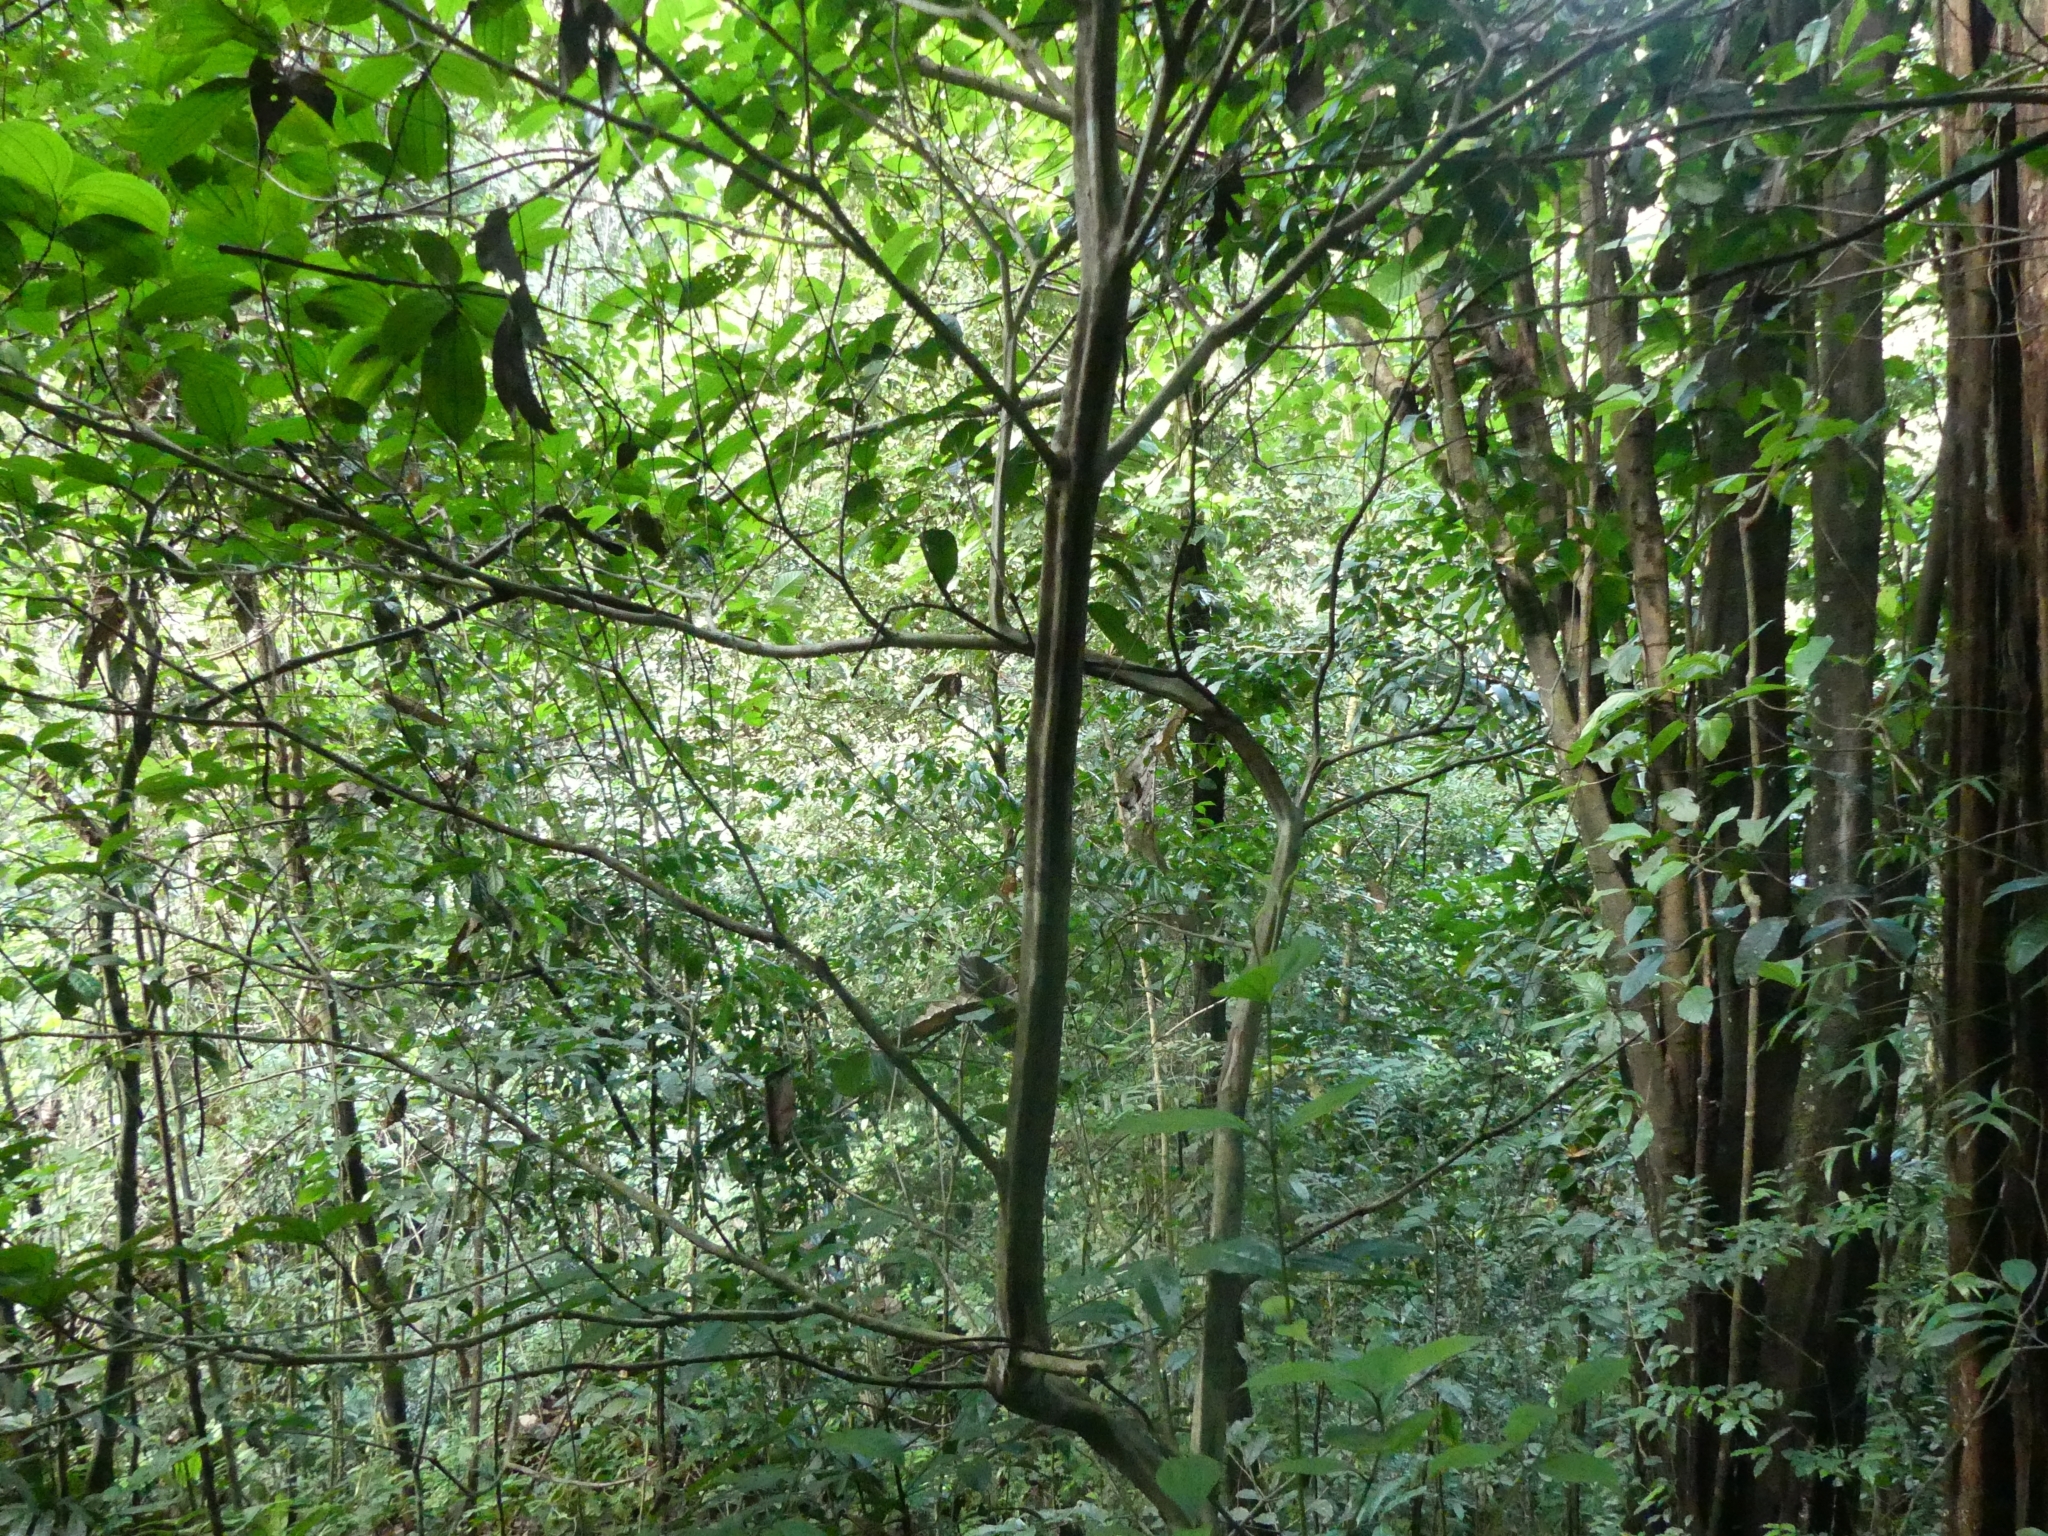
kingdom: Plantae
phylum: Tracheophyta
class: Magnoliopsida
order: Myrtales
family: Melastomataceae
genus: Henriettea
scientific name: Henriettea flavescens
